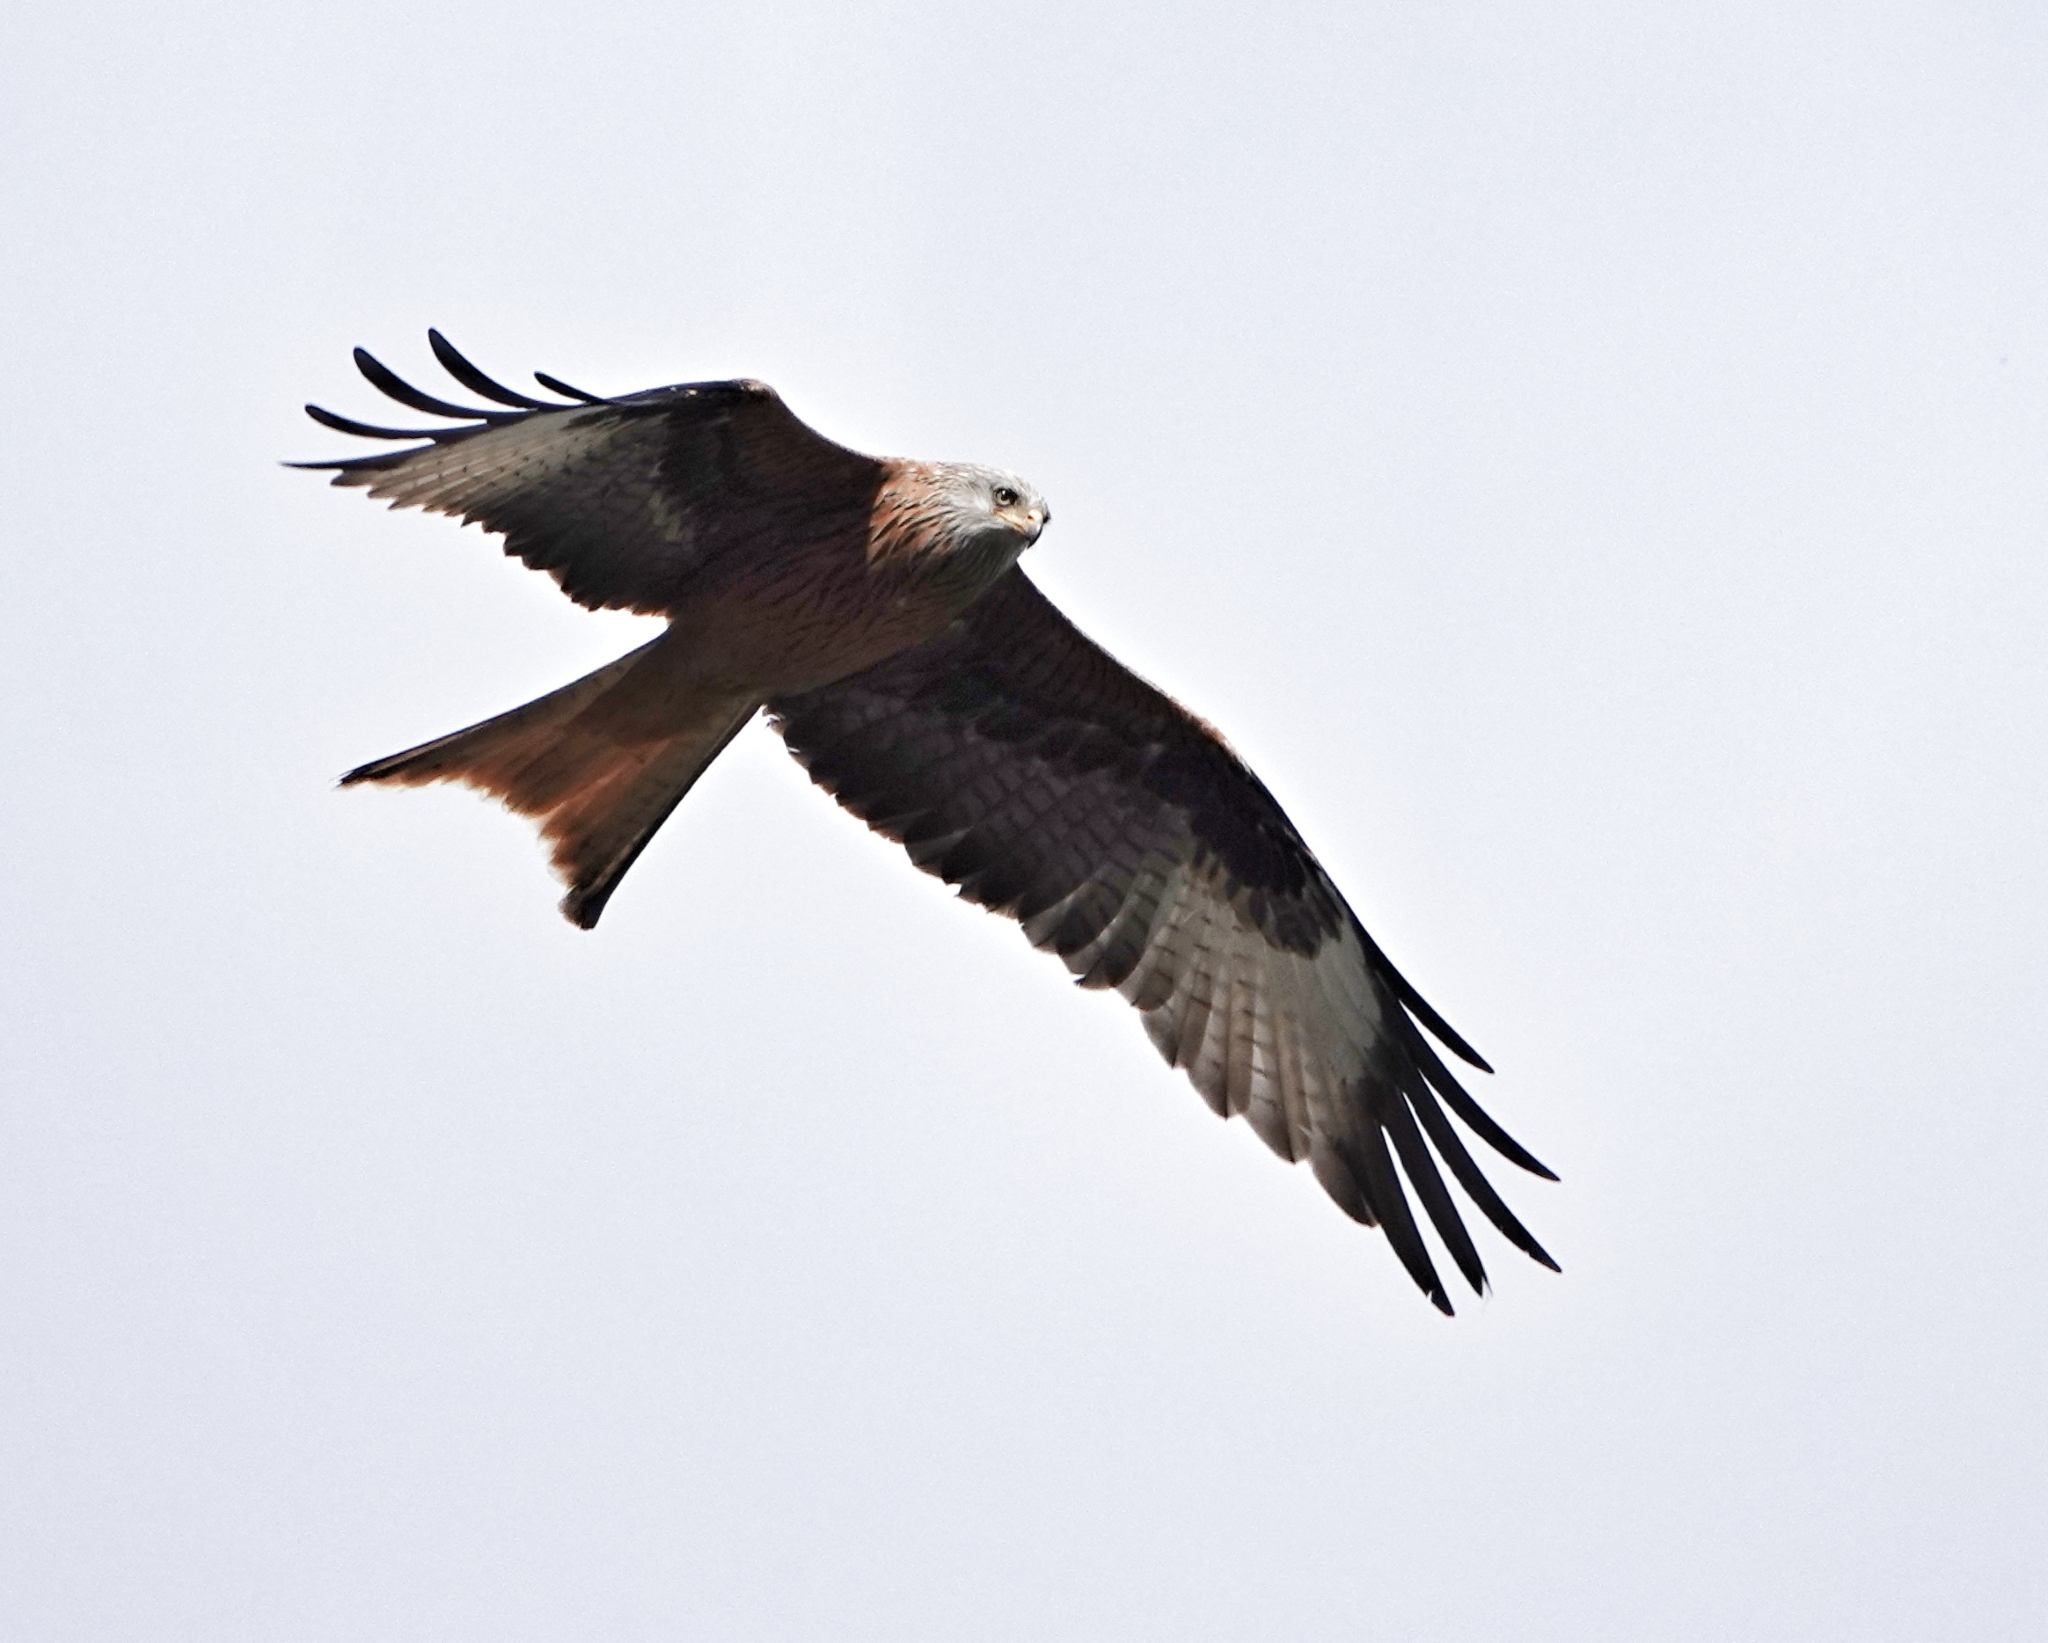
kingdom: Animalia
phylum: Chordata
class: Aves
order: Accipitriformes
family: Accipitridae
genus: Milvus
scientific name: Milvus milvus
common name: Red kite
